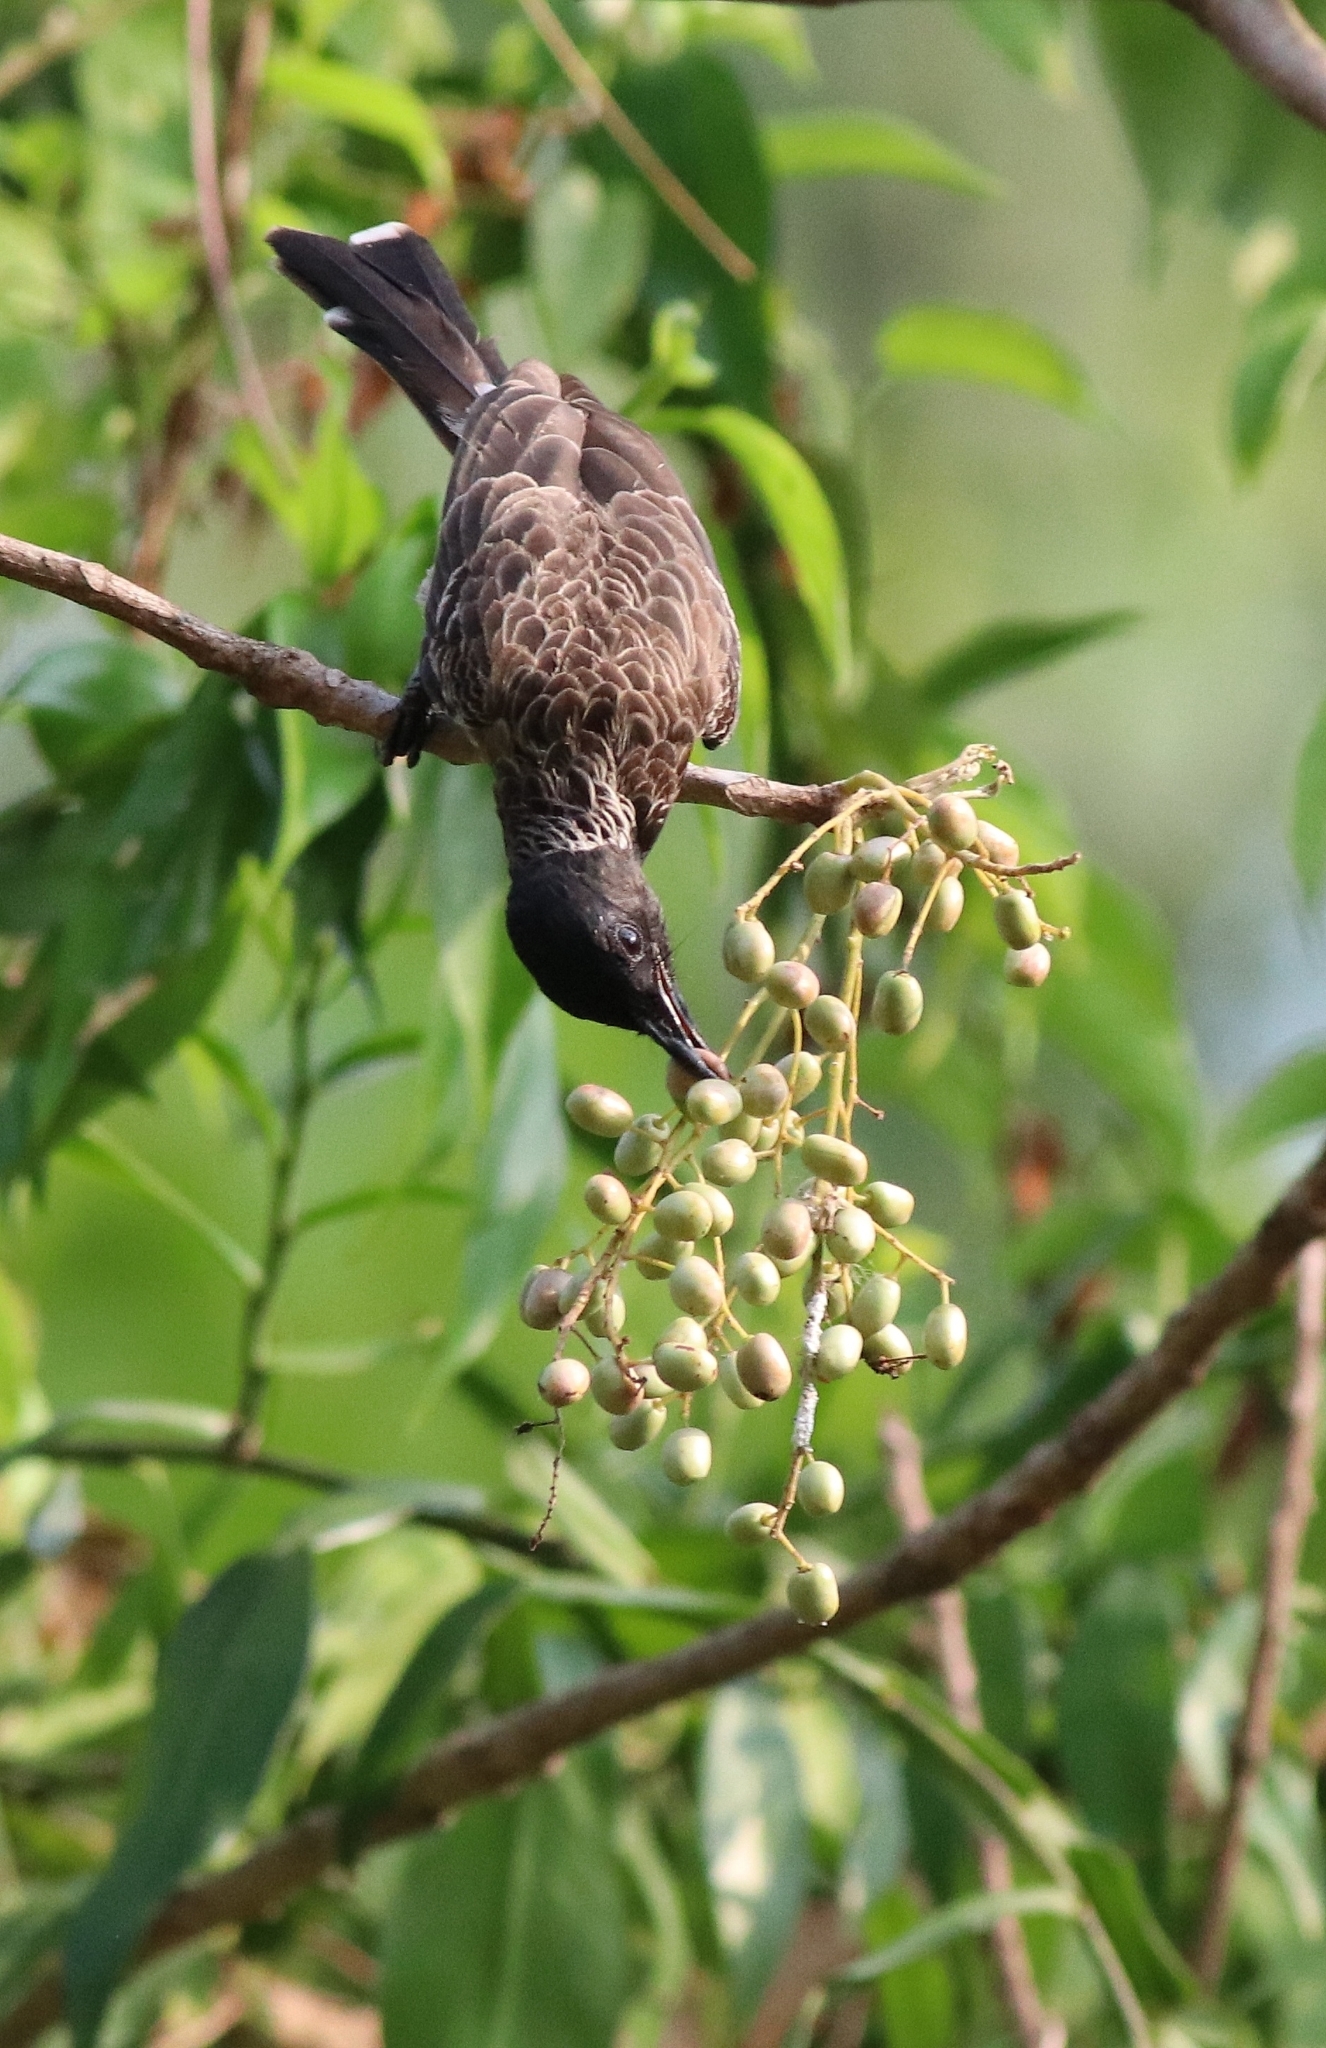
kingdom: Animalia
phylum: Chordata
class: Aves
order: Passeriformes
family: Pycnonotidae
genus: Pycnonotus
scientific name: Pycnonotus cafer
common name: Red-vented bulbul
